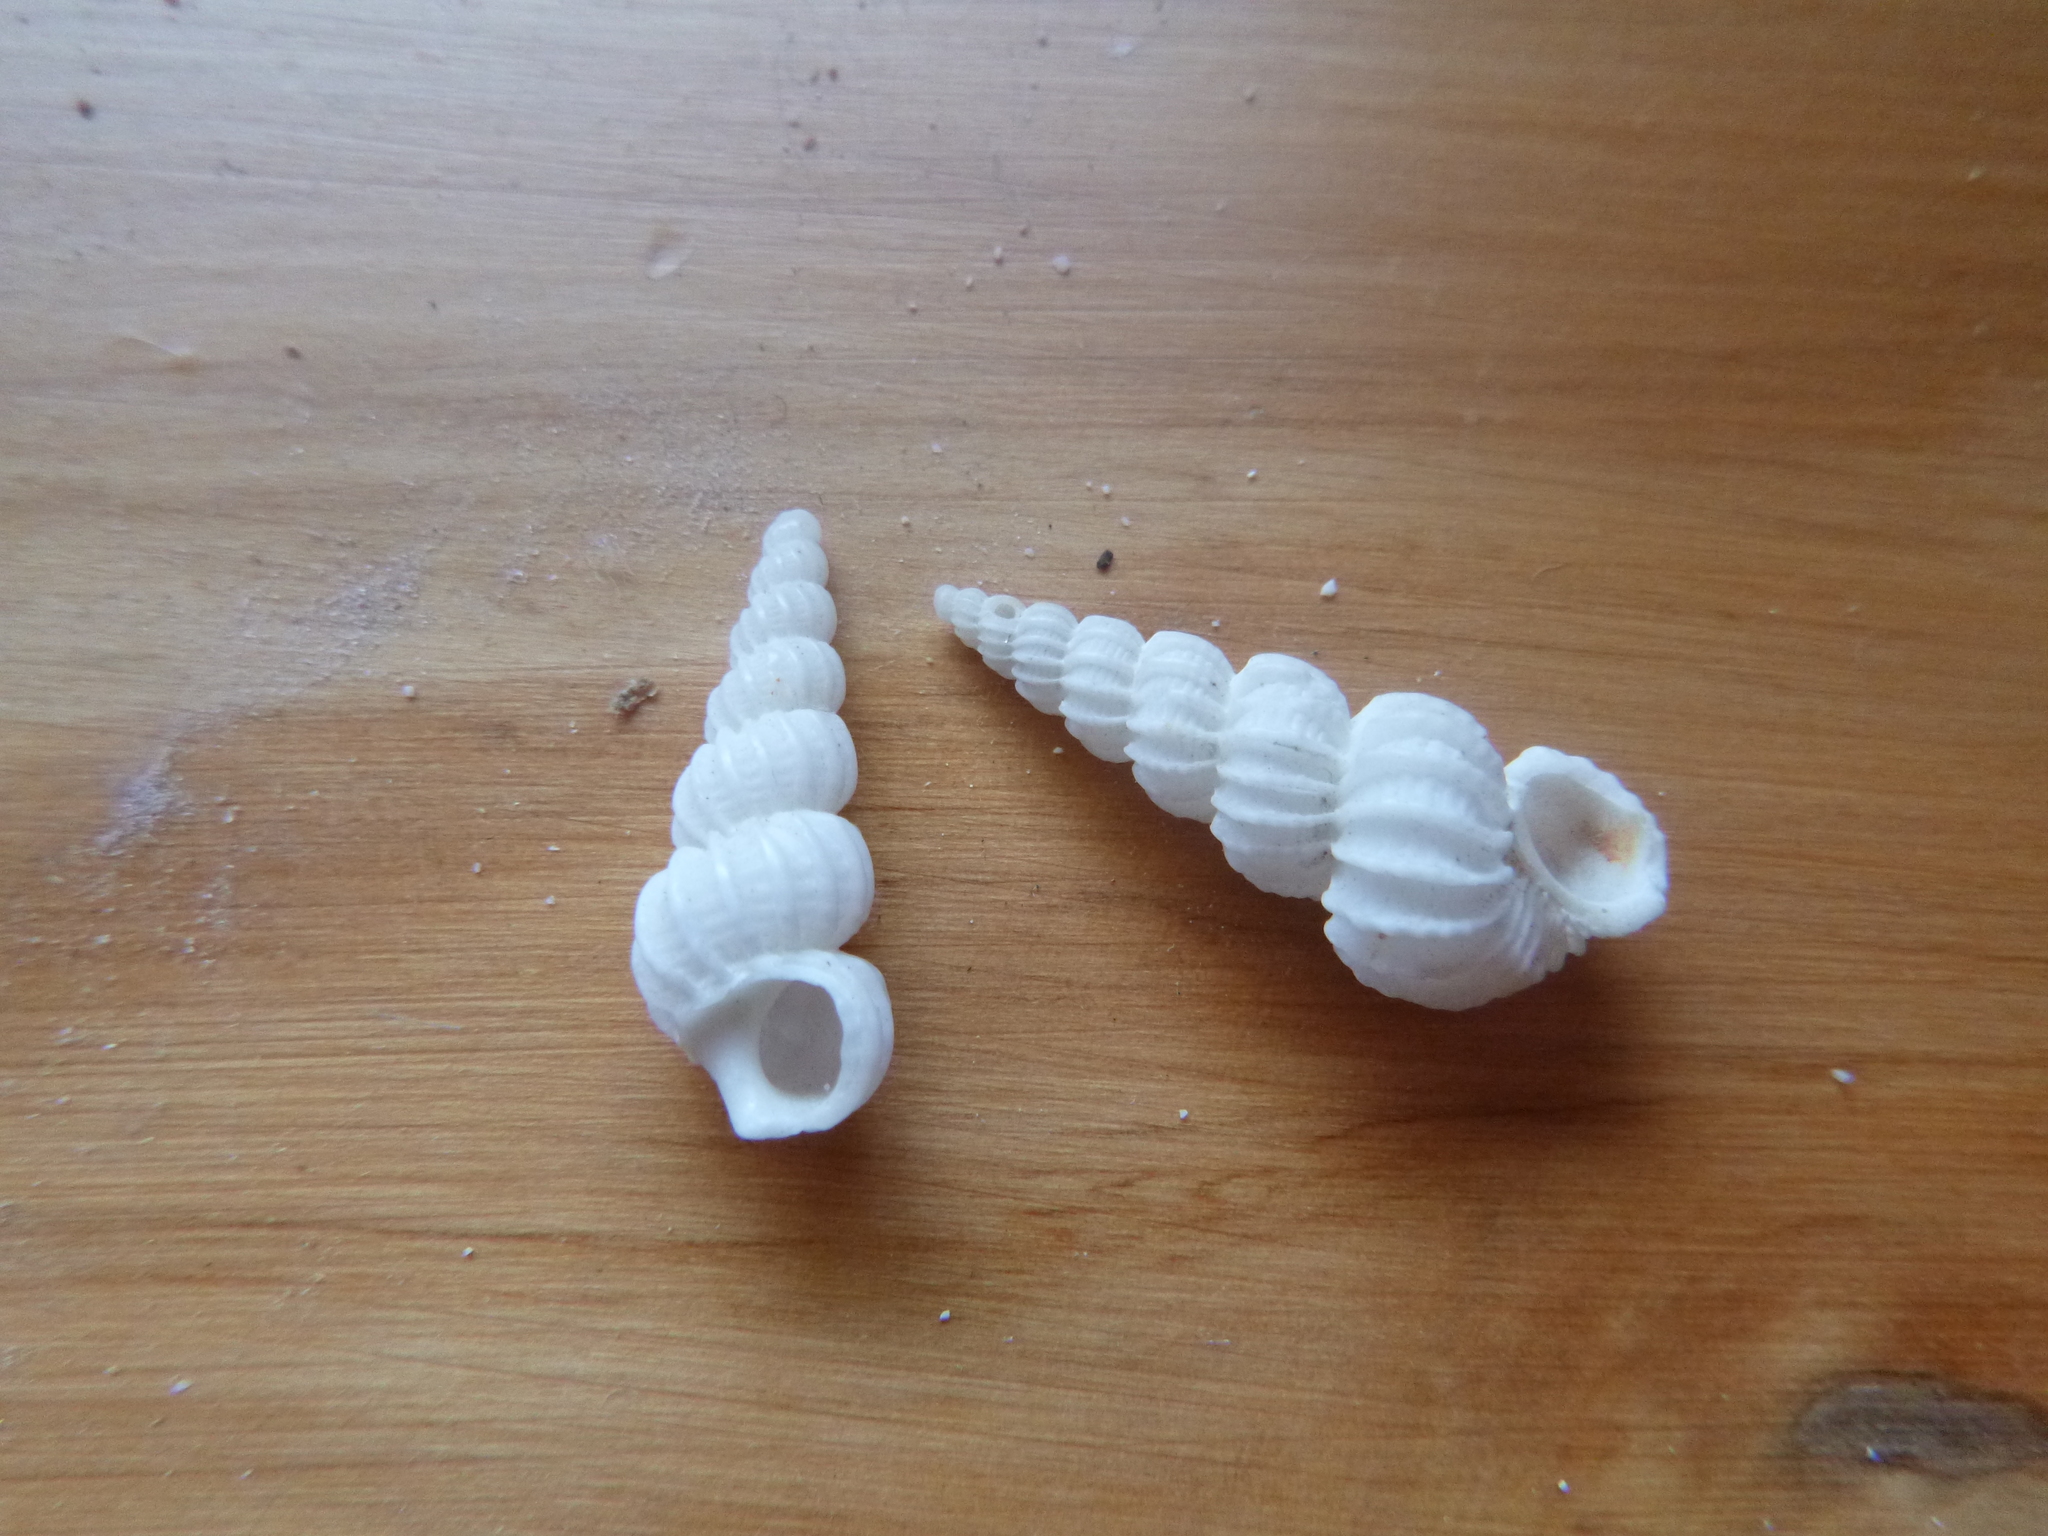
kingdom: Animalia
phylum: Mollusca
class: Gastropoda
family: Epitoniidae
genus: Cirsotrema
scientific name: Cirsotrema zelebori
